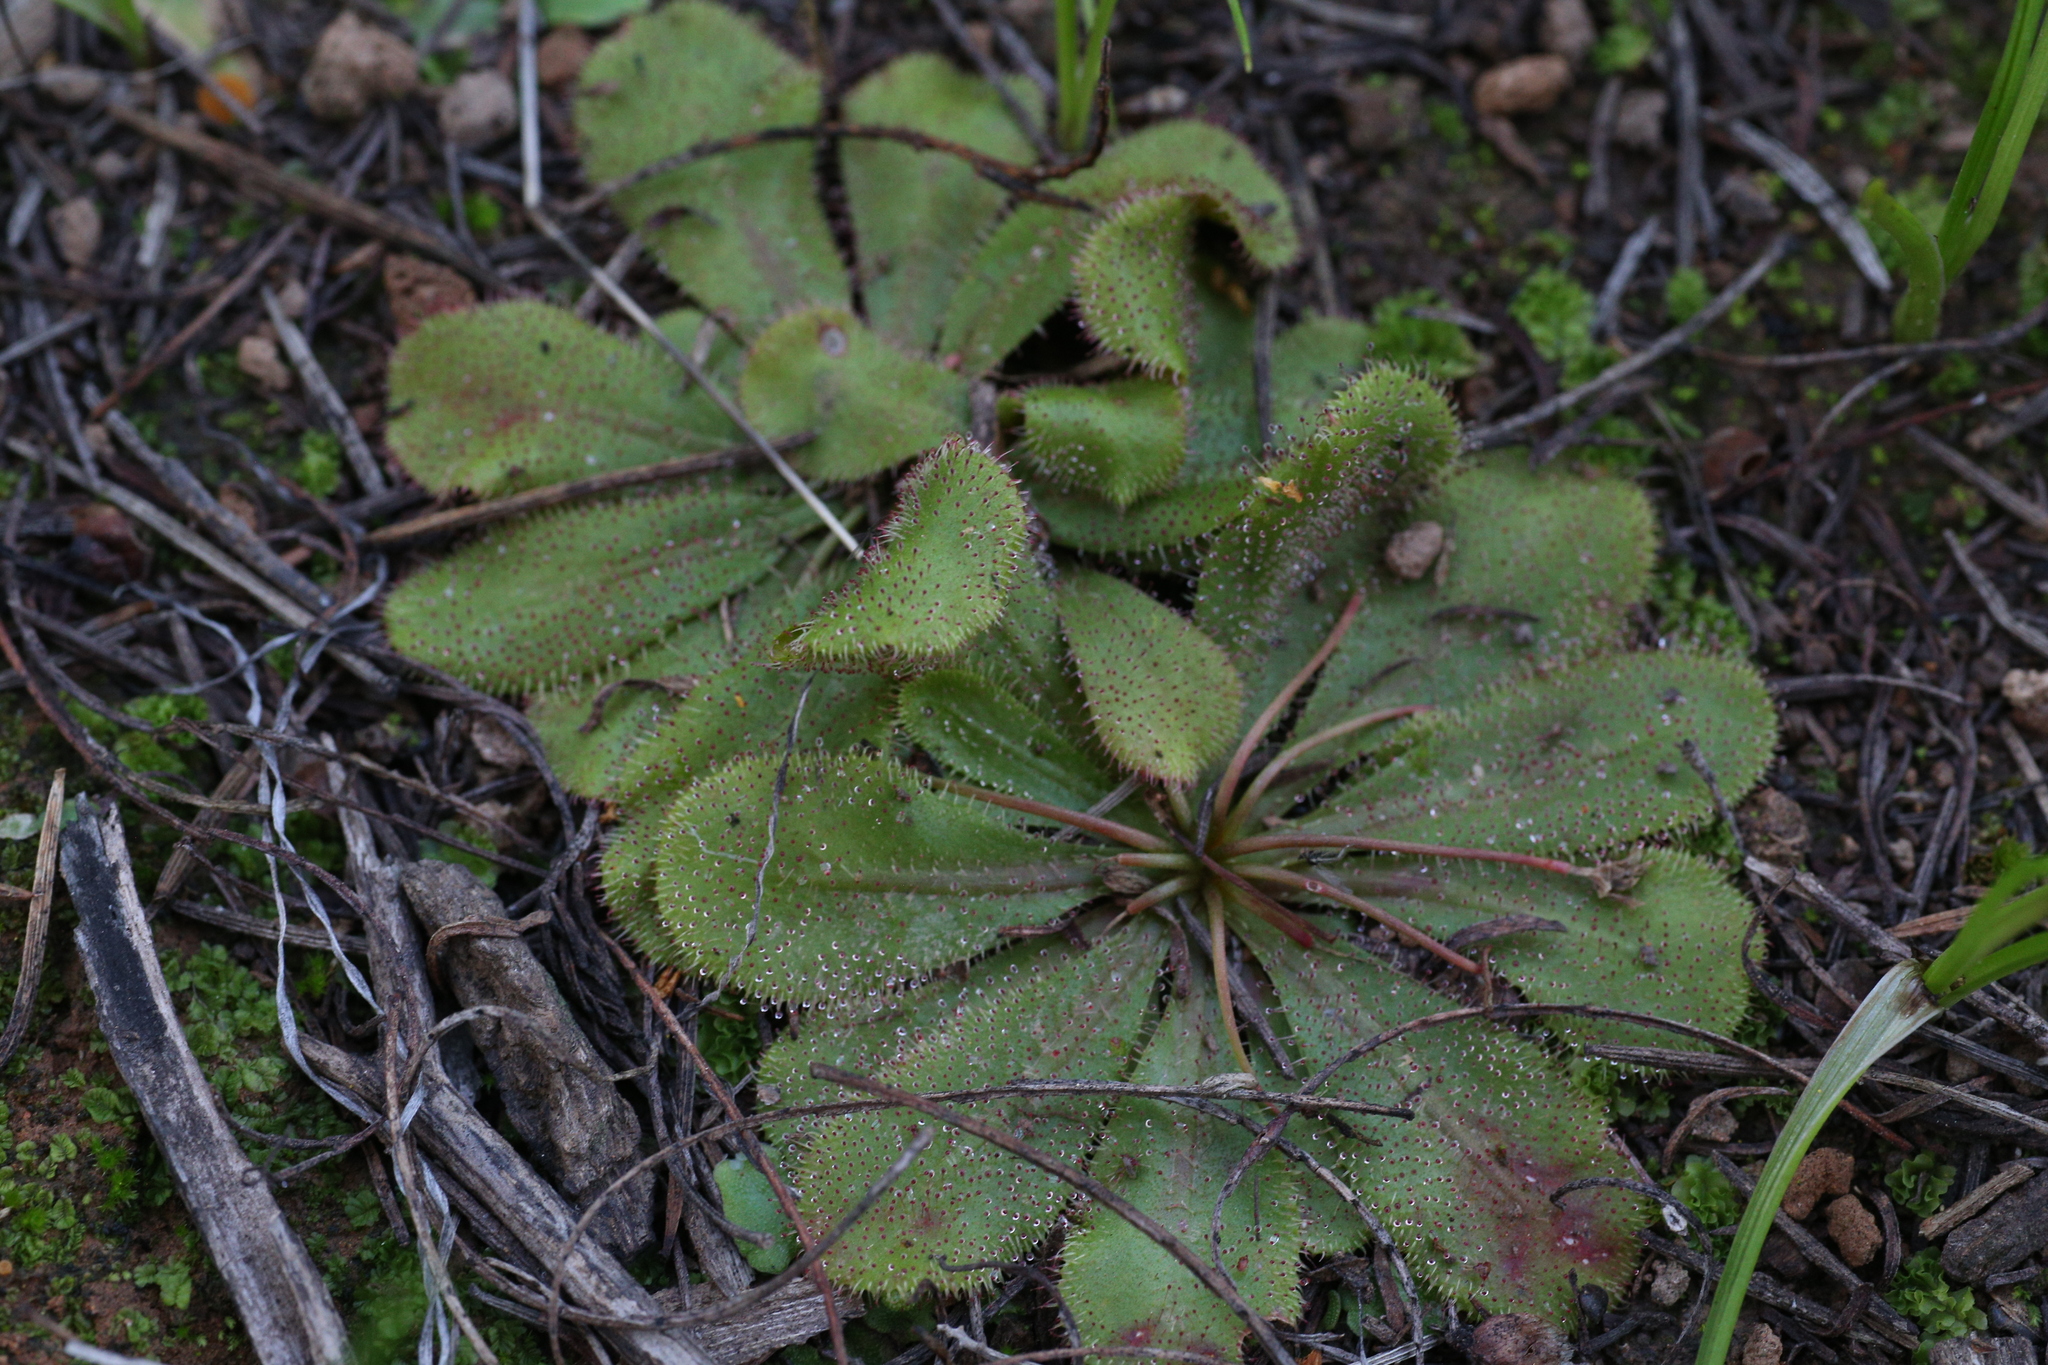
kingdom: Plantae
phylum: Tracheophyta
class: Magnoliopsida
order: Caryophyllales
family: Droseraceae
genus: Drosera
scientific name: Drosera bulbosa
